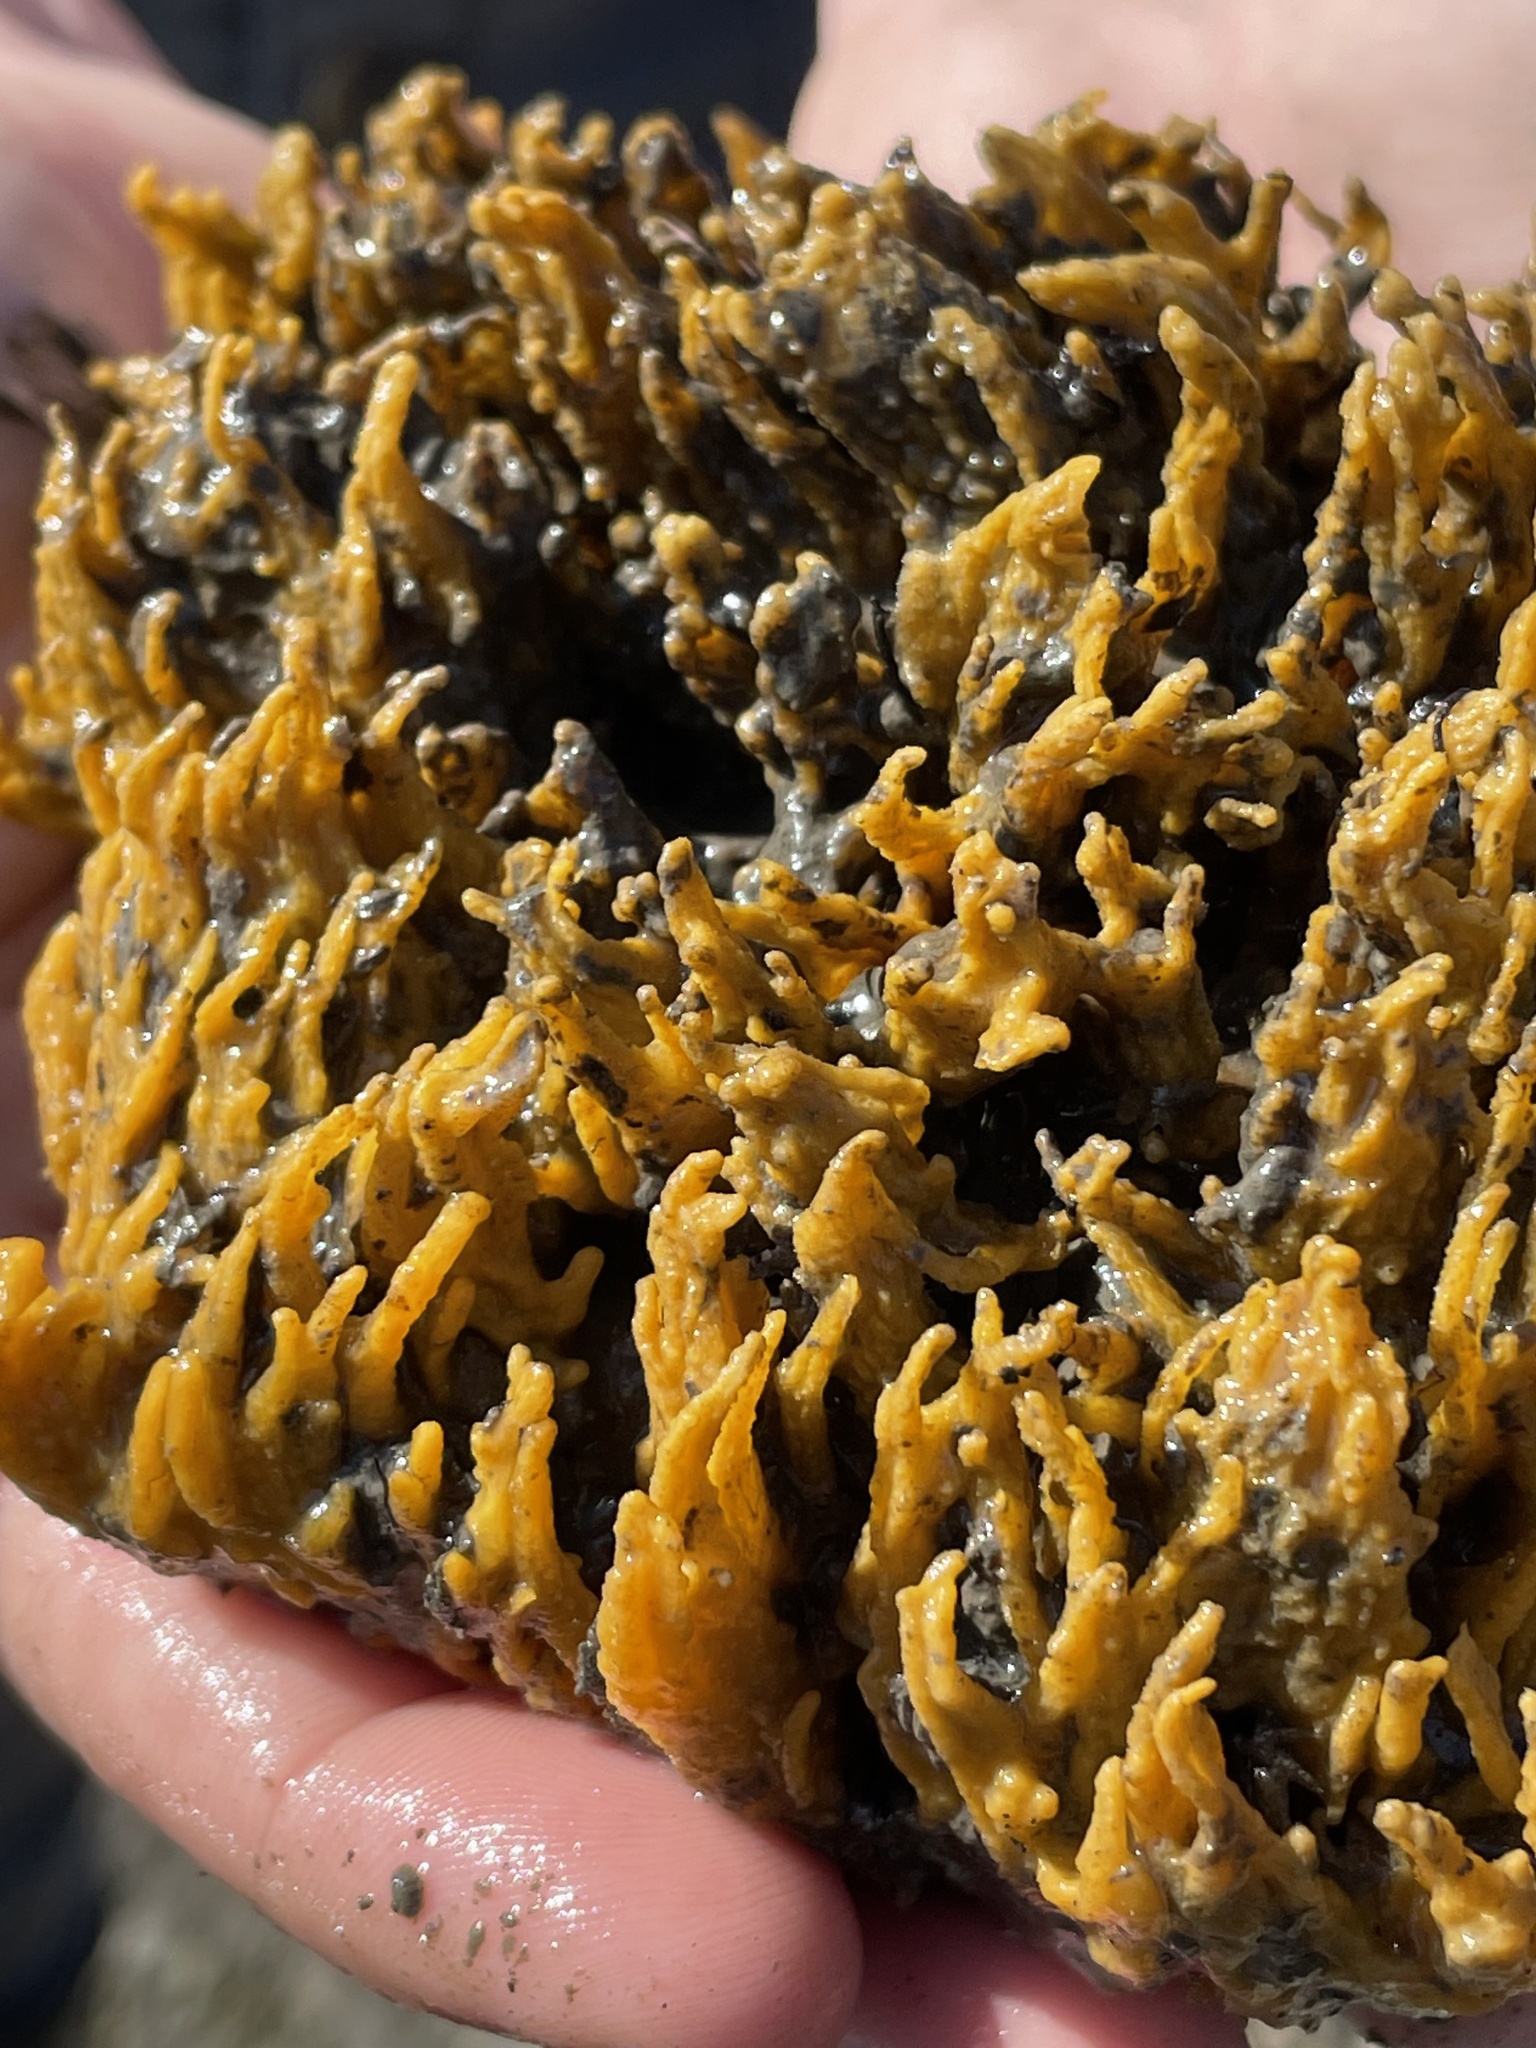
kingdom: Animalia
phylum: Porifera
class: Demospongiae
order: Suberitida
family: Halichondriidae
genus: Hymeniacidon
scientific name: Hymeniacidon perlevis
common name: Crumb-of-bread sponge
